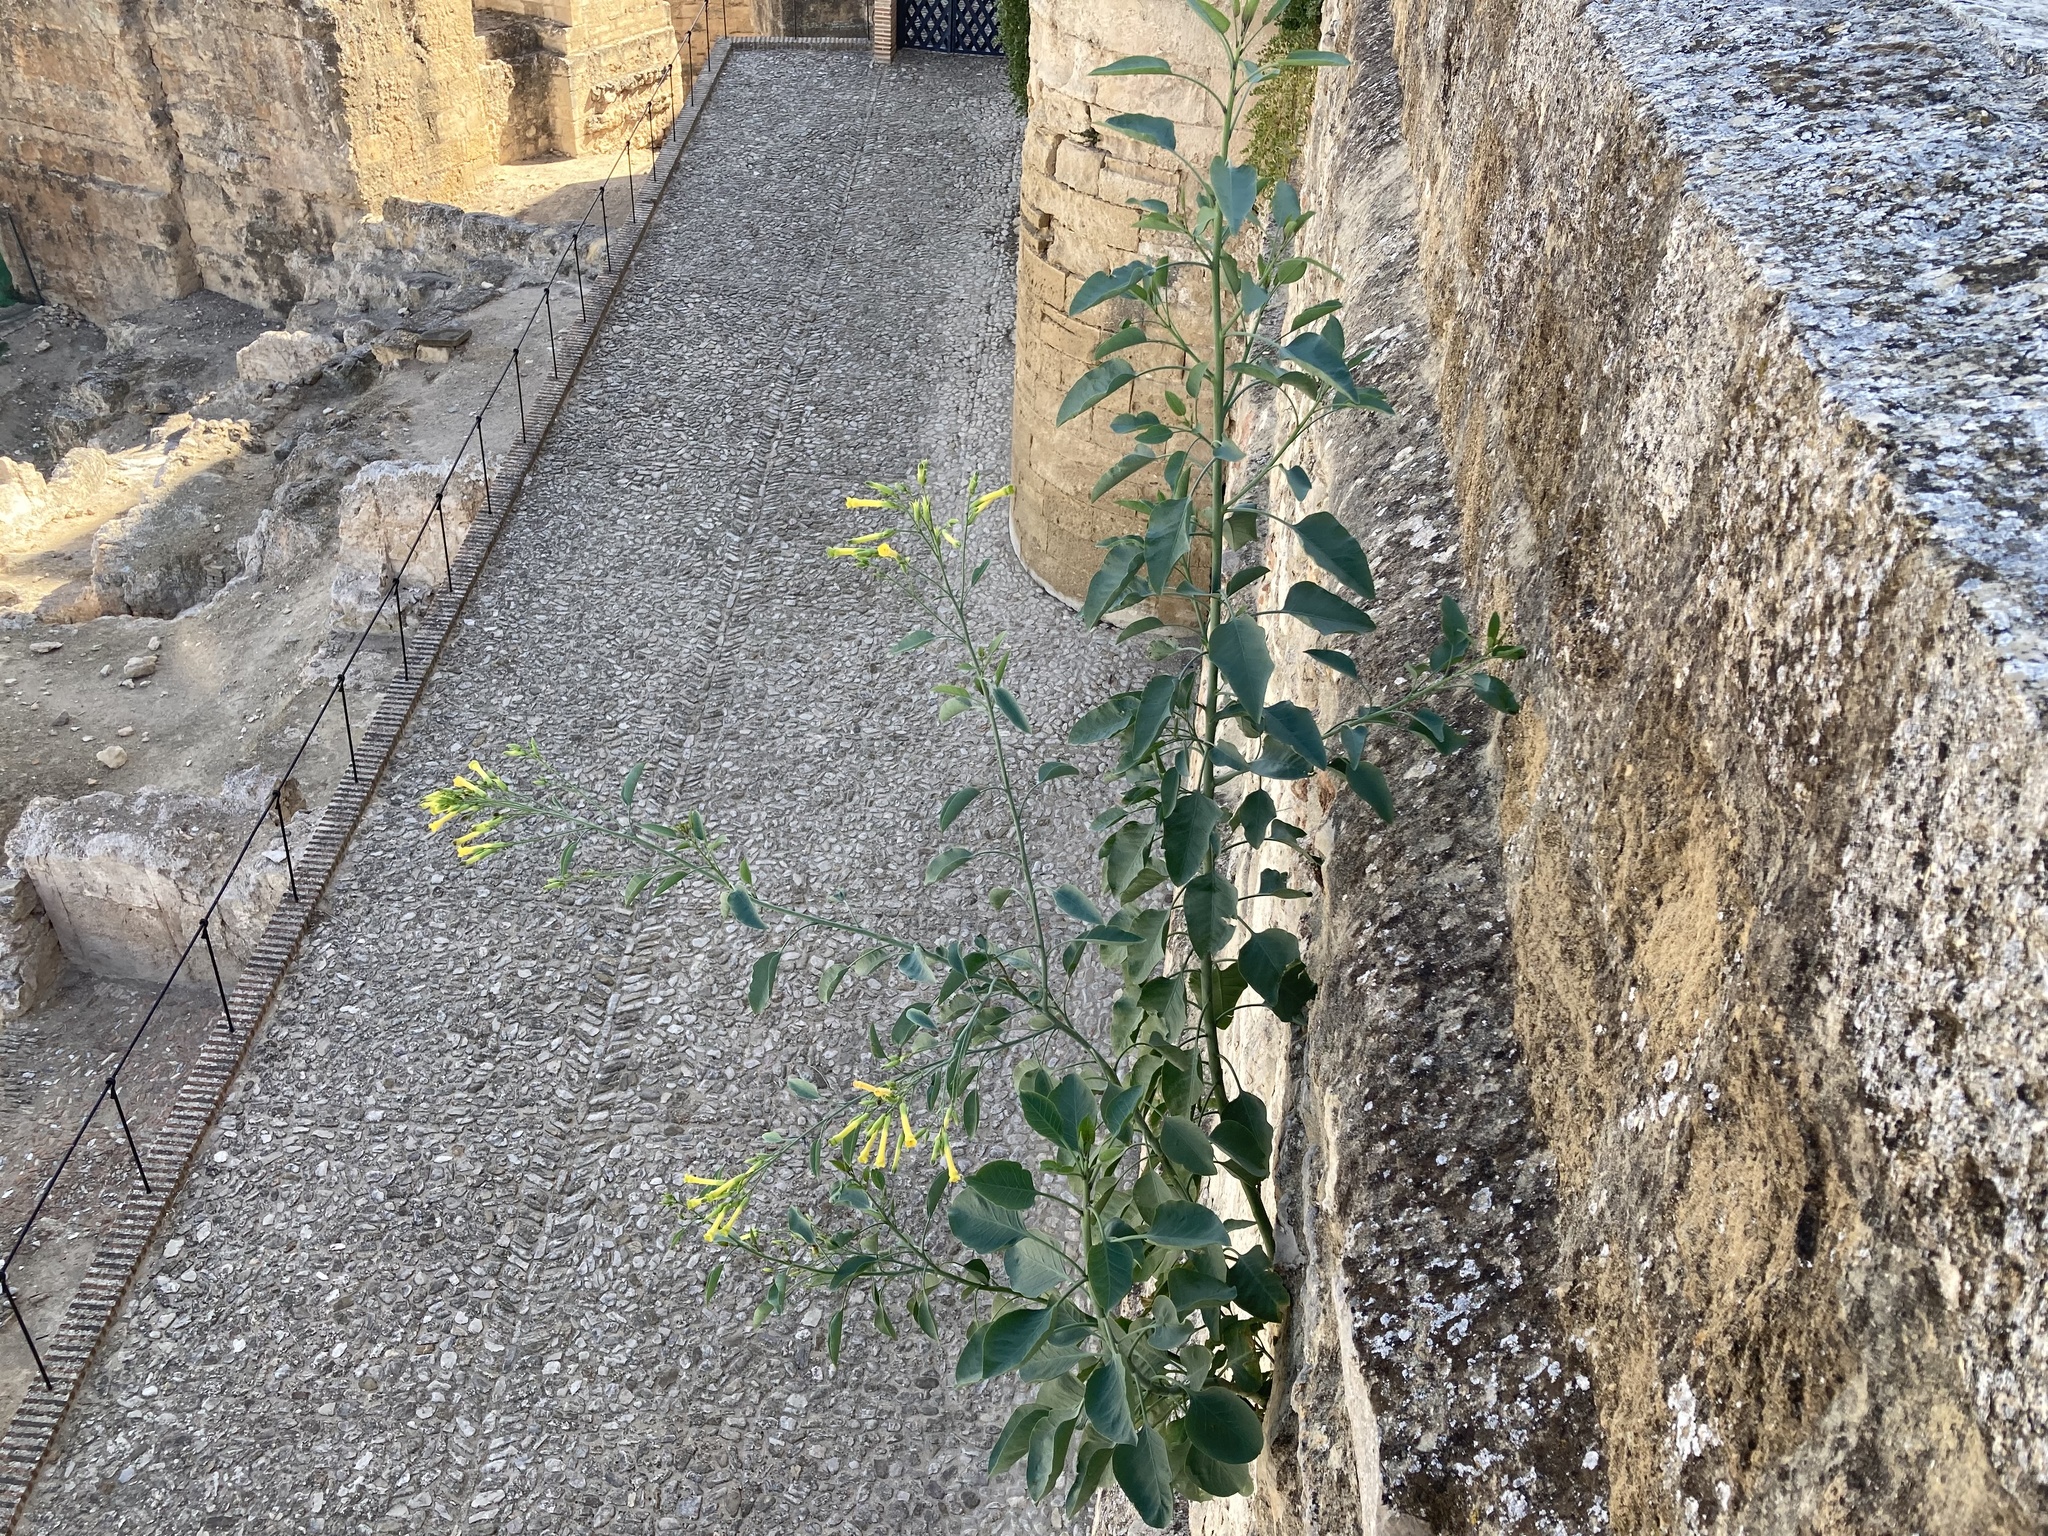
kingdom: Plantae
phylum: Tracheophyta
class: Magnoliopsida
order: Solanales
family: Solanaceae
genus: Nicotiana
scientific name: Nicotiana glauca
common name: Tree tobacco
